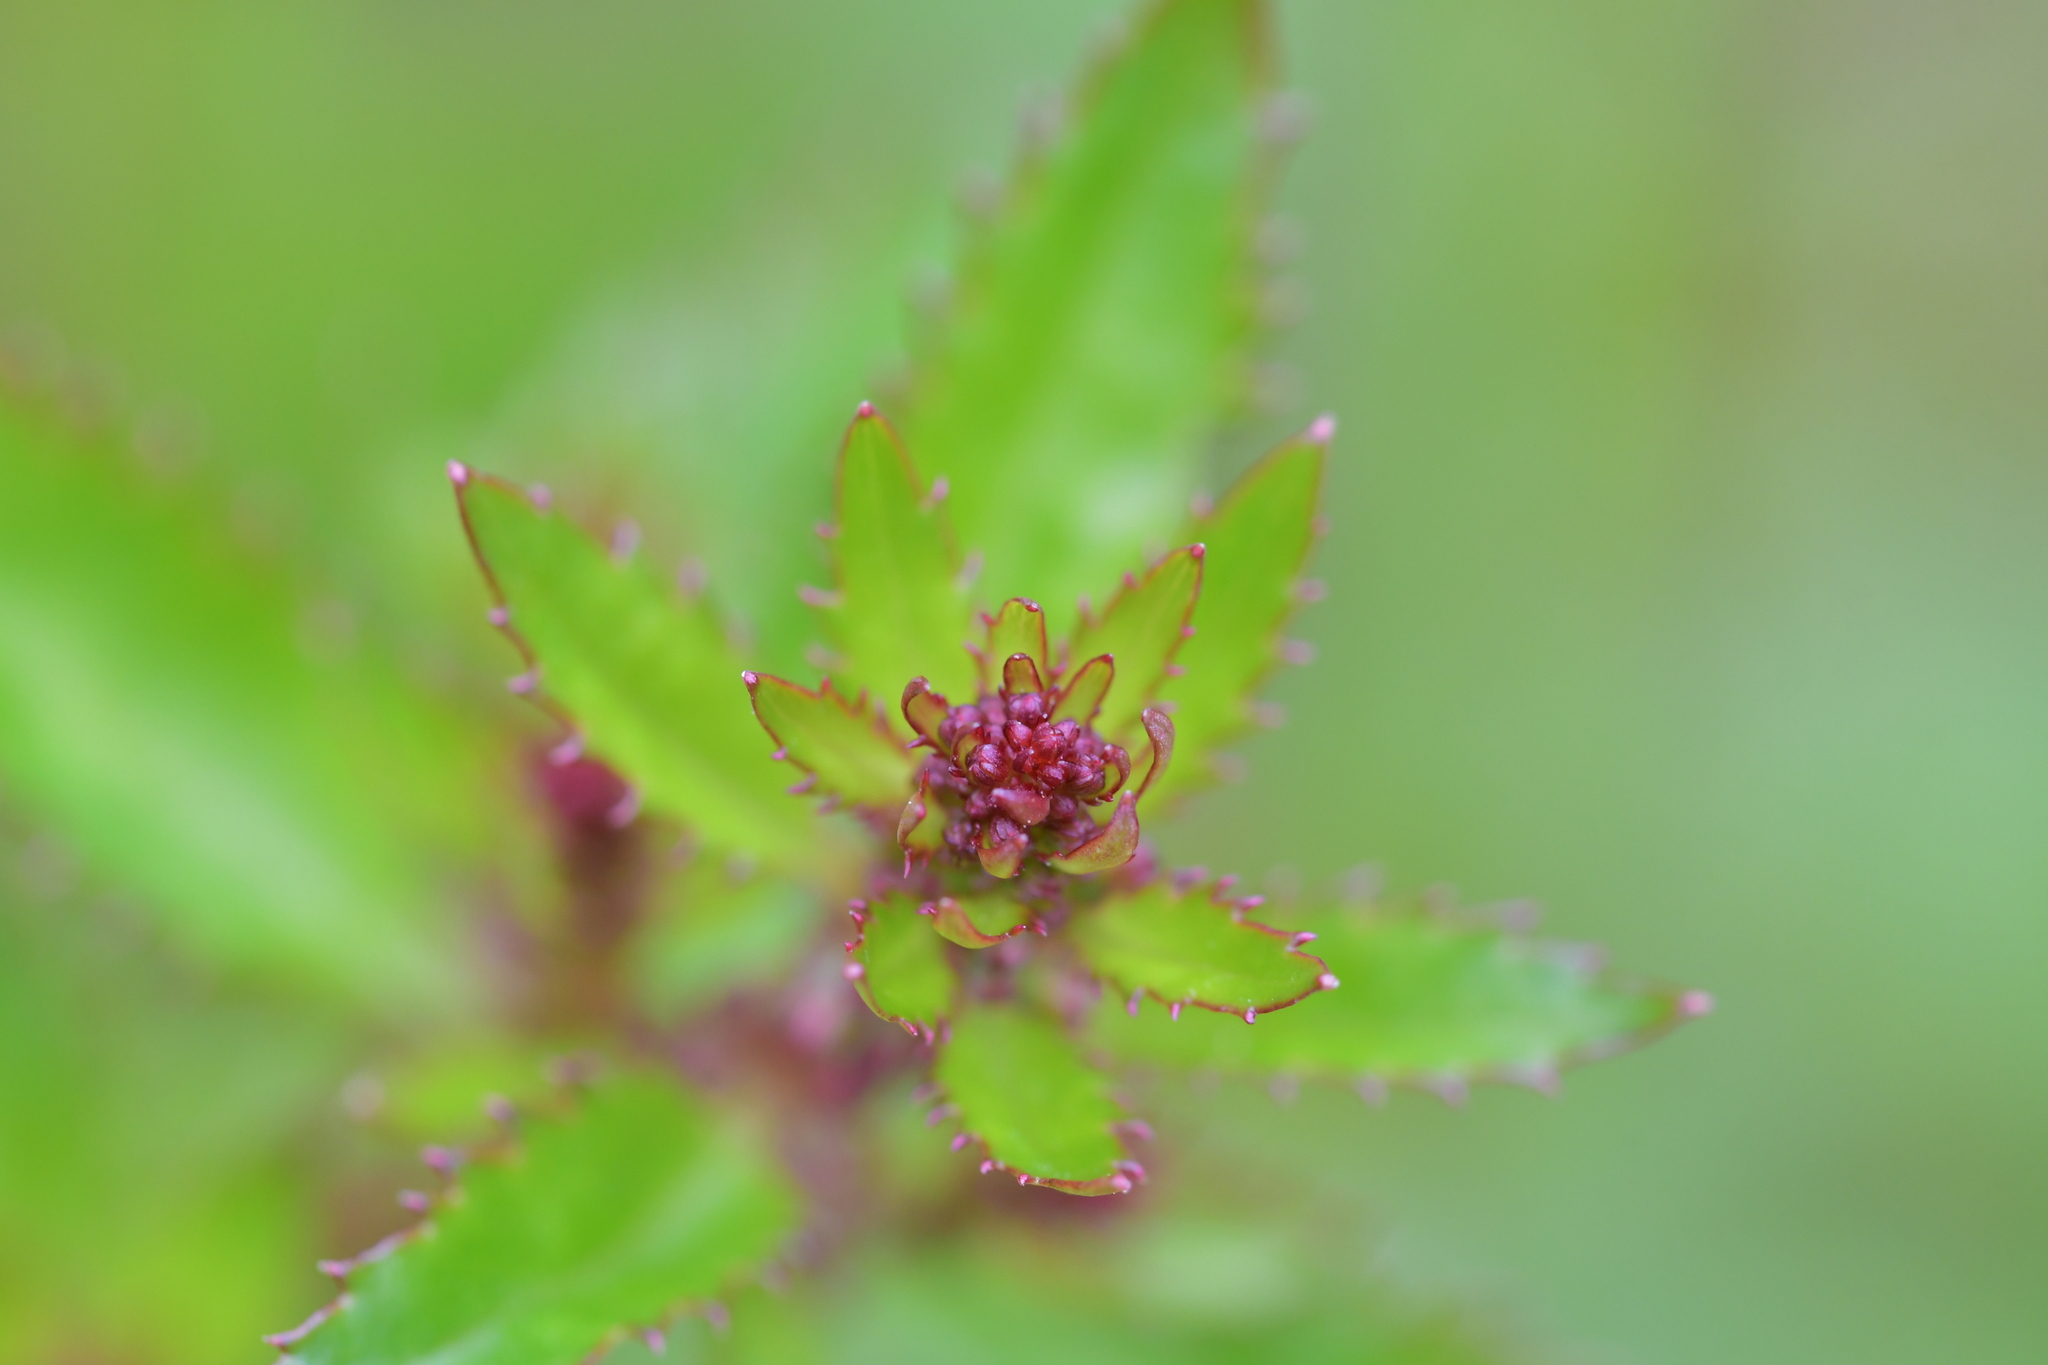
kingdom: Plantae
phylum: Tracheophyta
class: Magnoliopsida
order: Saxifragales
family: Haloragaceae
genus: Haloragis
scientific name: Haloragis erecta
